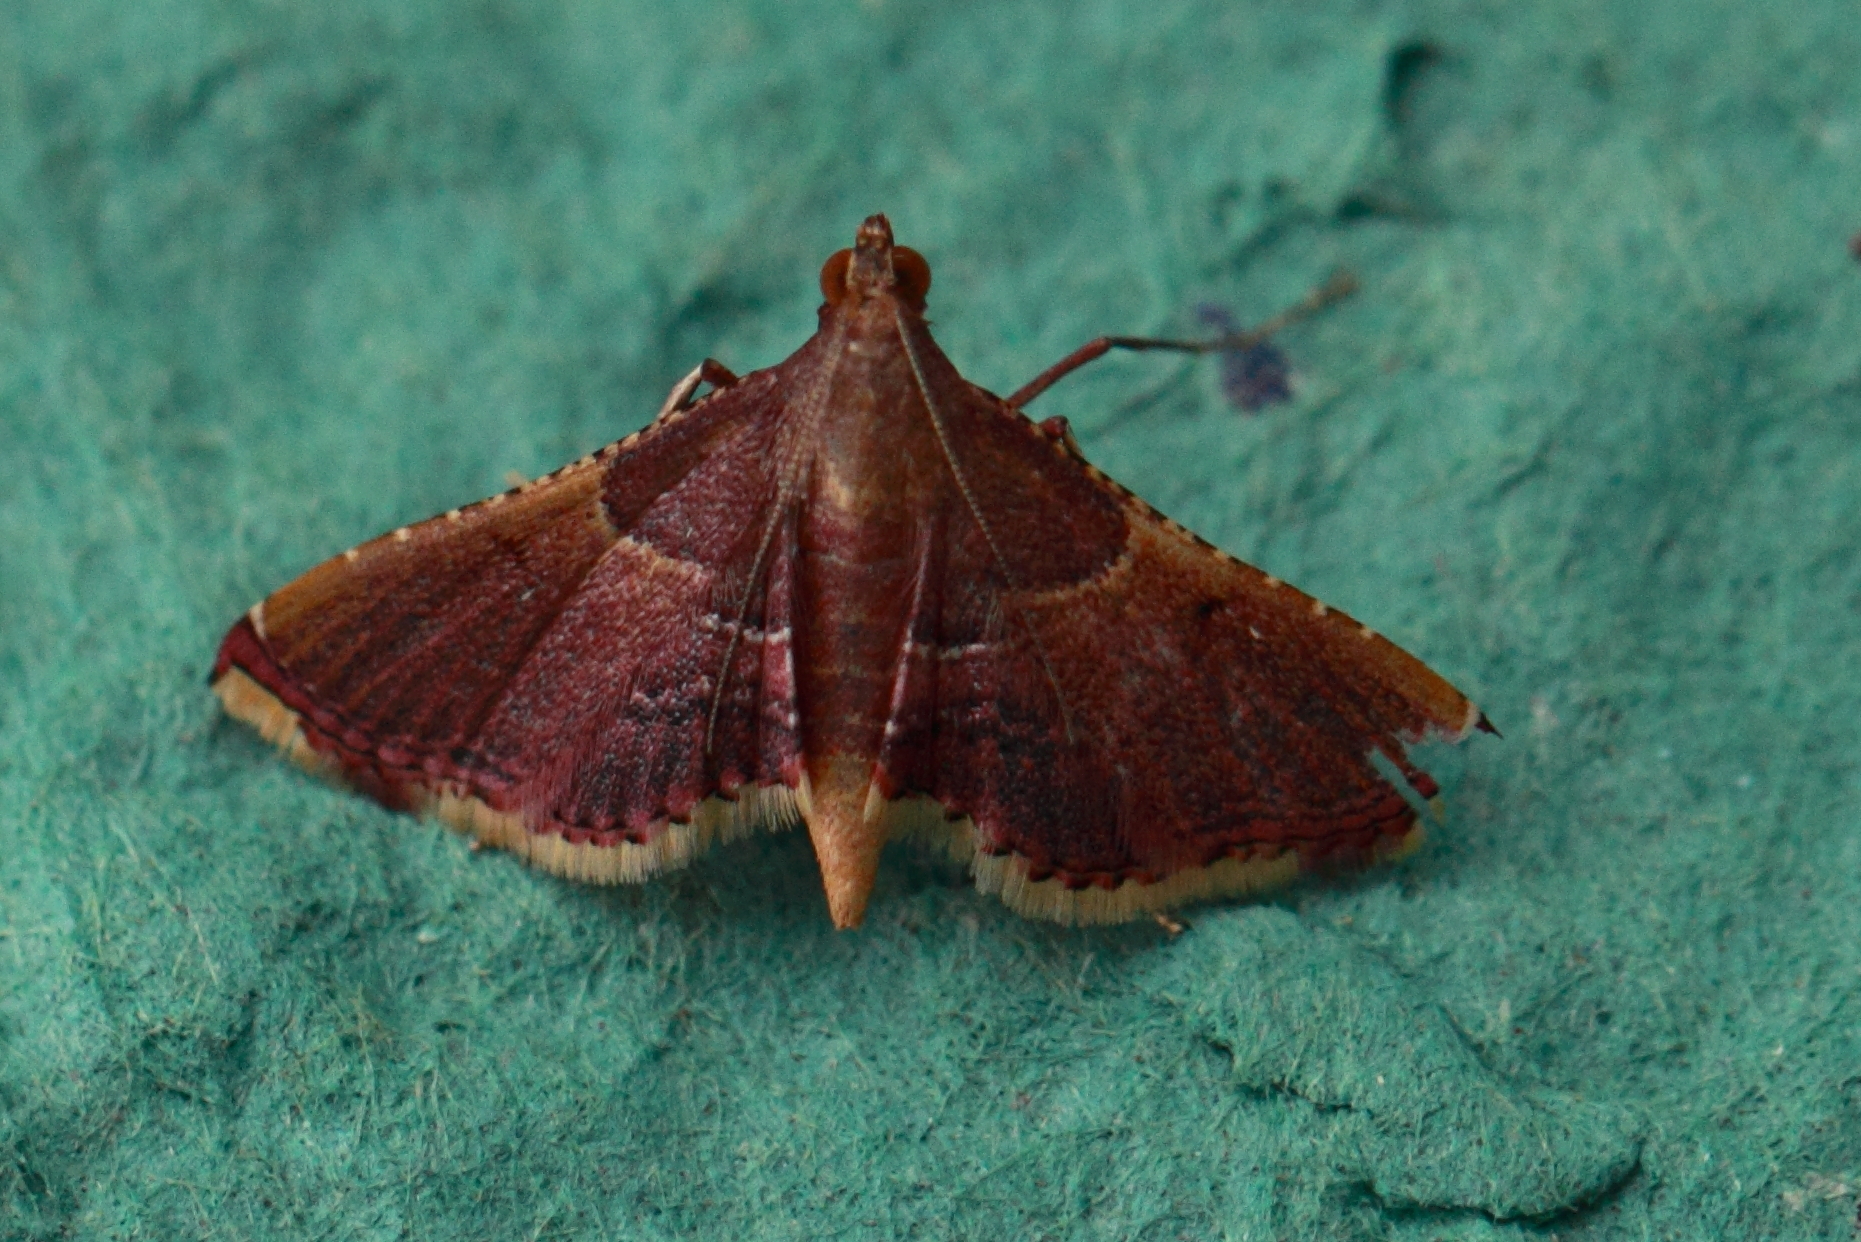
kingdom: Animalia
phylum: Arthropoda
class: Insecta
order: Lepidoptera
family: Pyralidae
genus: Endotricha
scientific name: Endotricha mesenterialis
